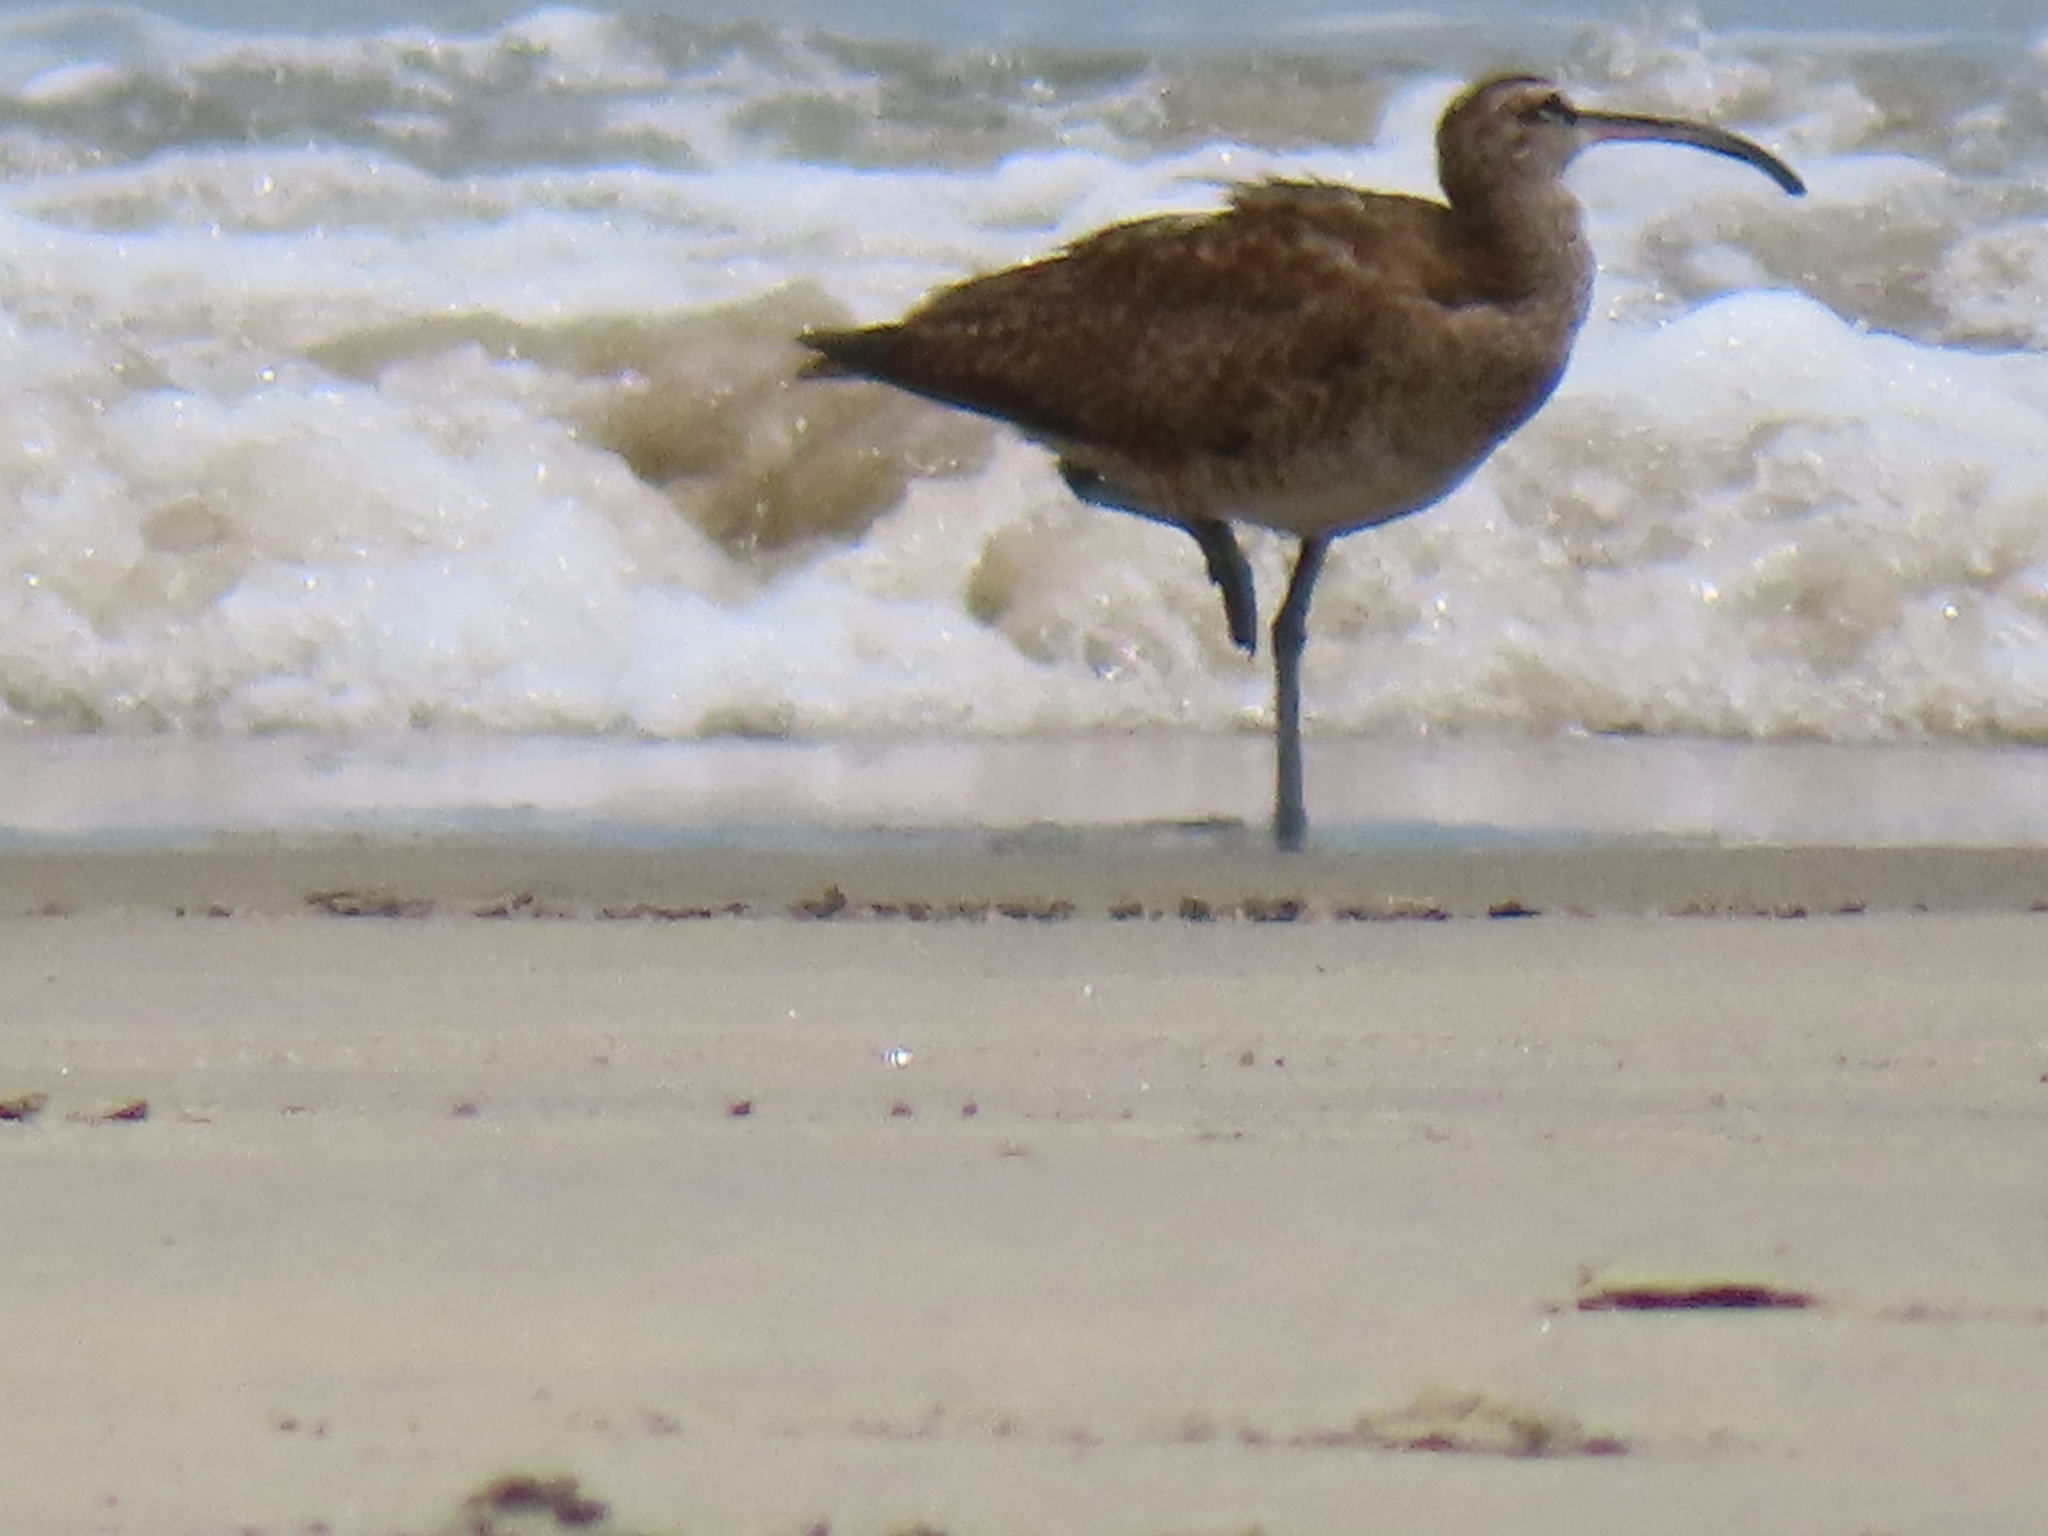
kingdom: Animalia
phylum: Chordata
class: Aves
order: Charadriiformes
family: Scolopacidae
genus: Numenius
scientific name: Numenius phaeopus
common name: Whimbrel
